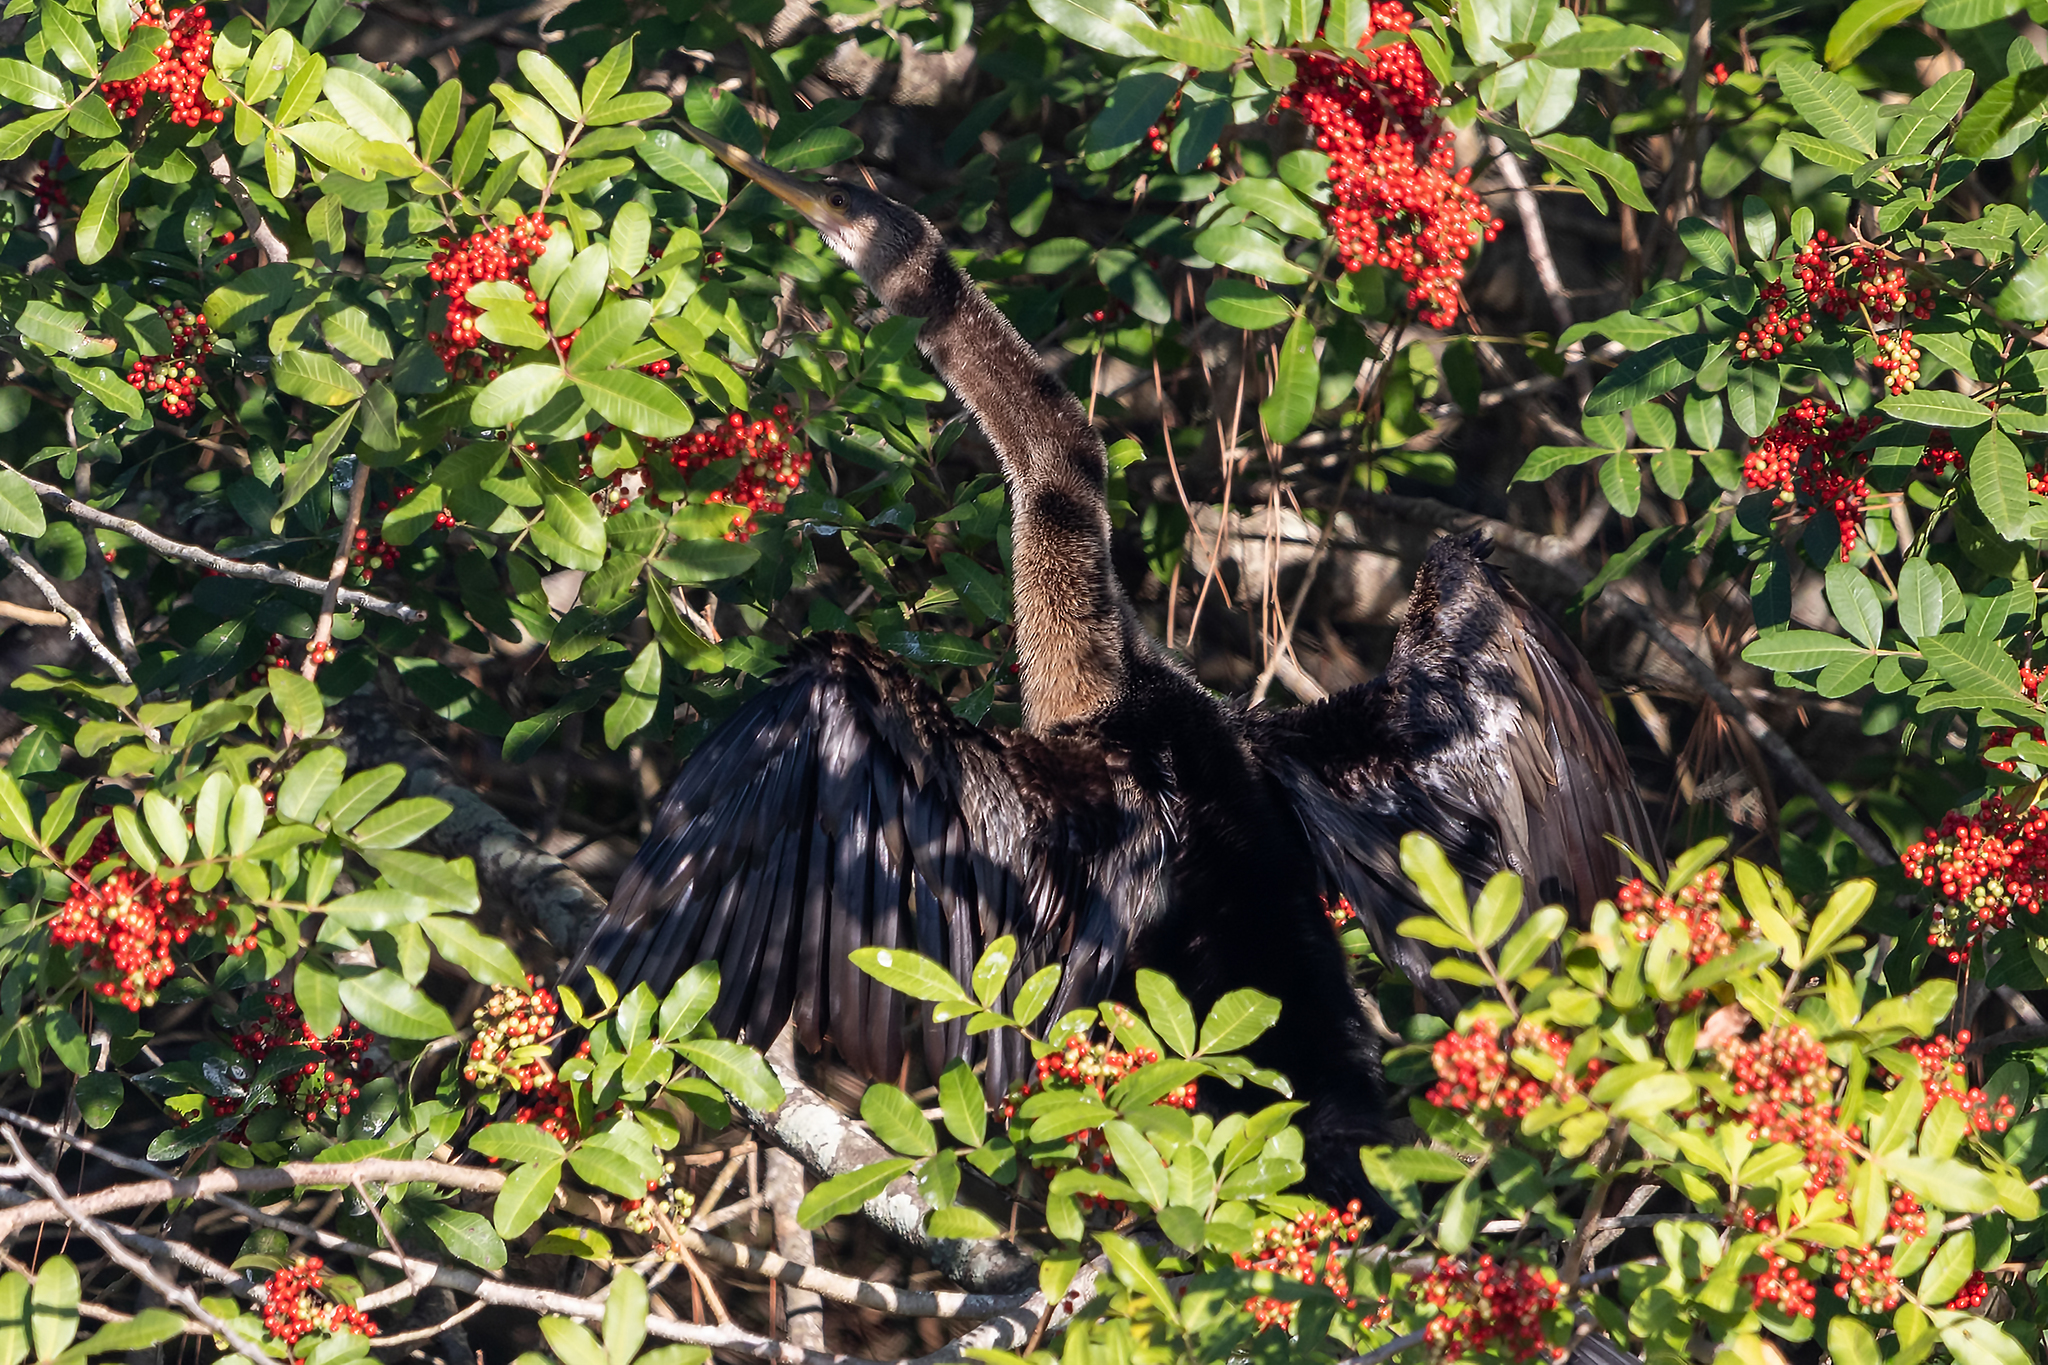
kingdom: Animalia
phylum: Chordata
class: Aves
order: Suliformes
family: Anhingidae
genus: Anhinga
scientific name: Anhinga anhinga
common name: Anhinga
